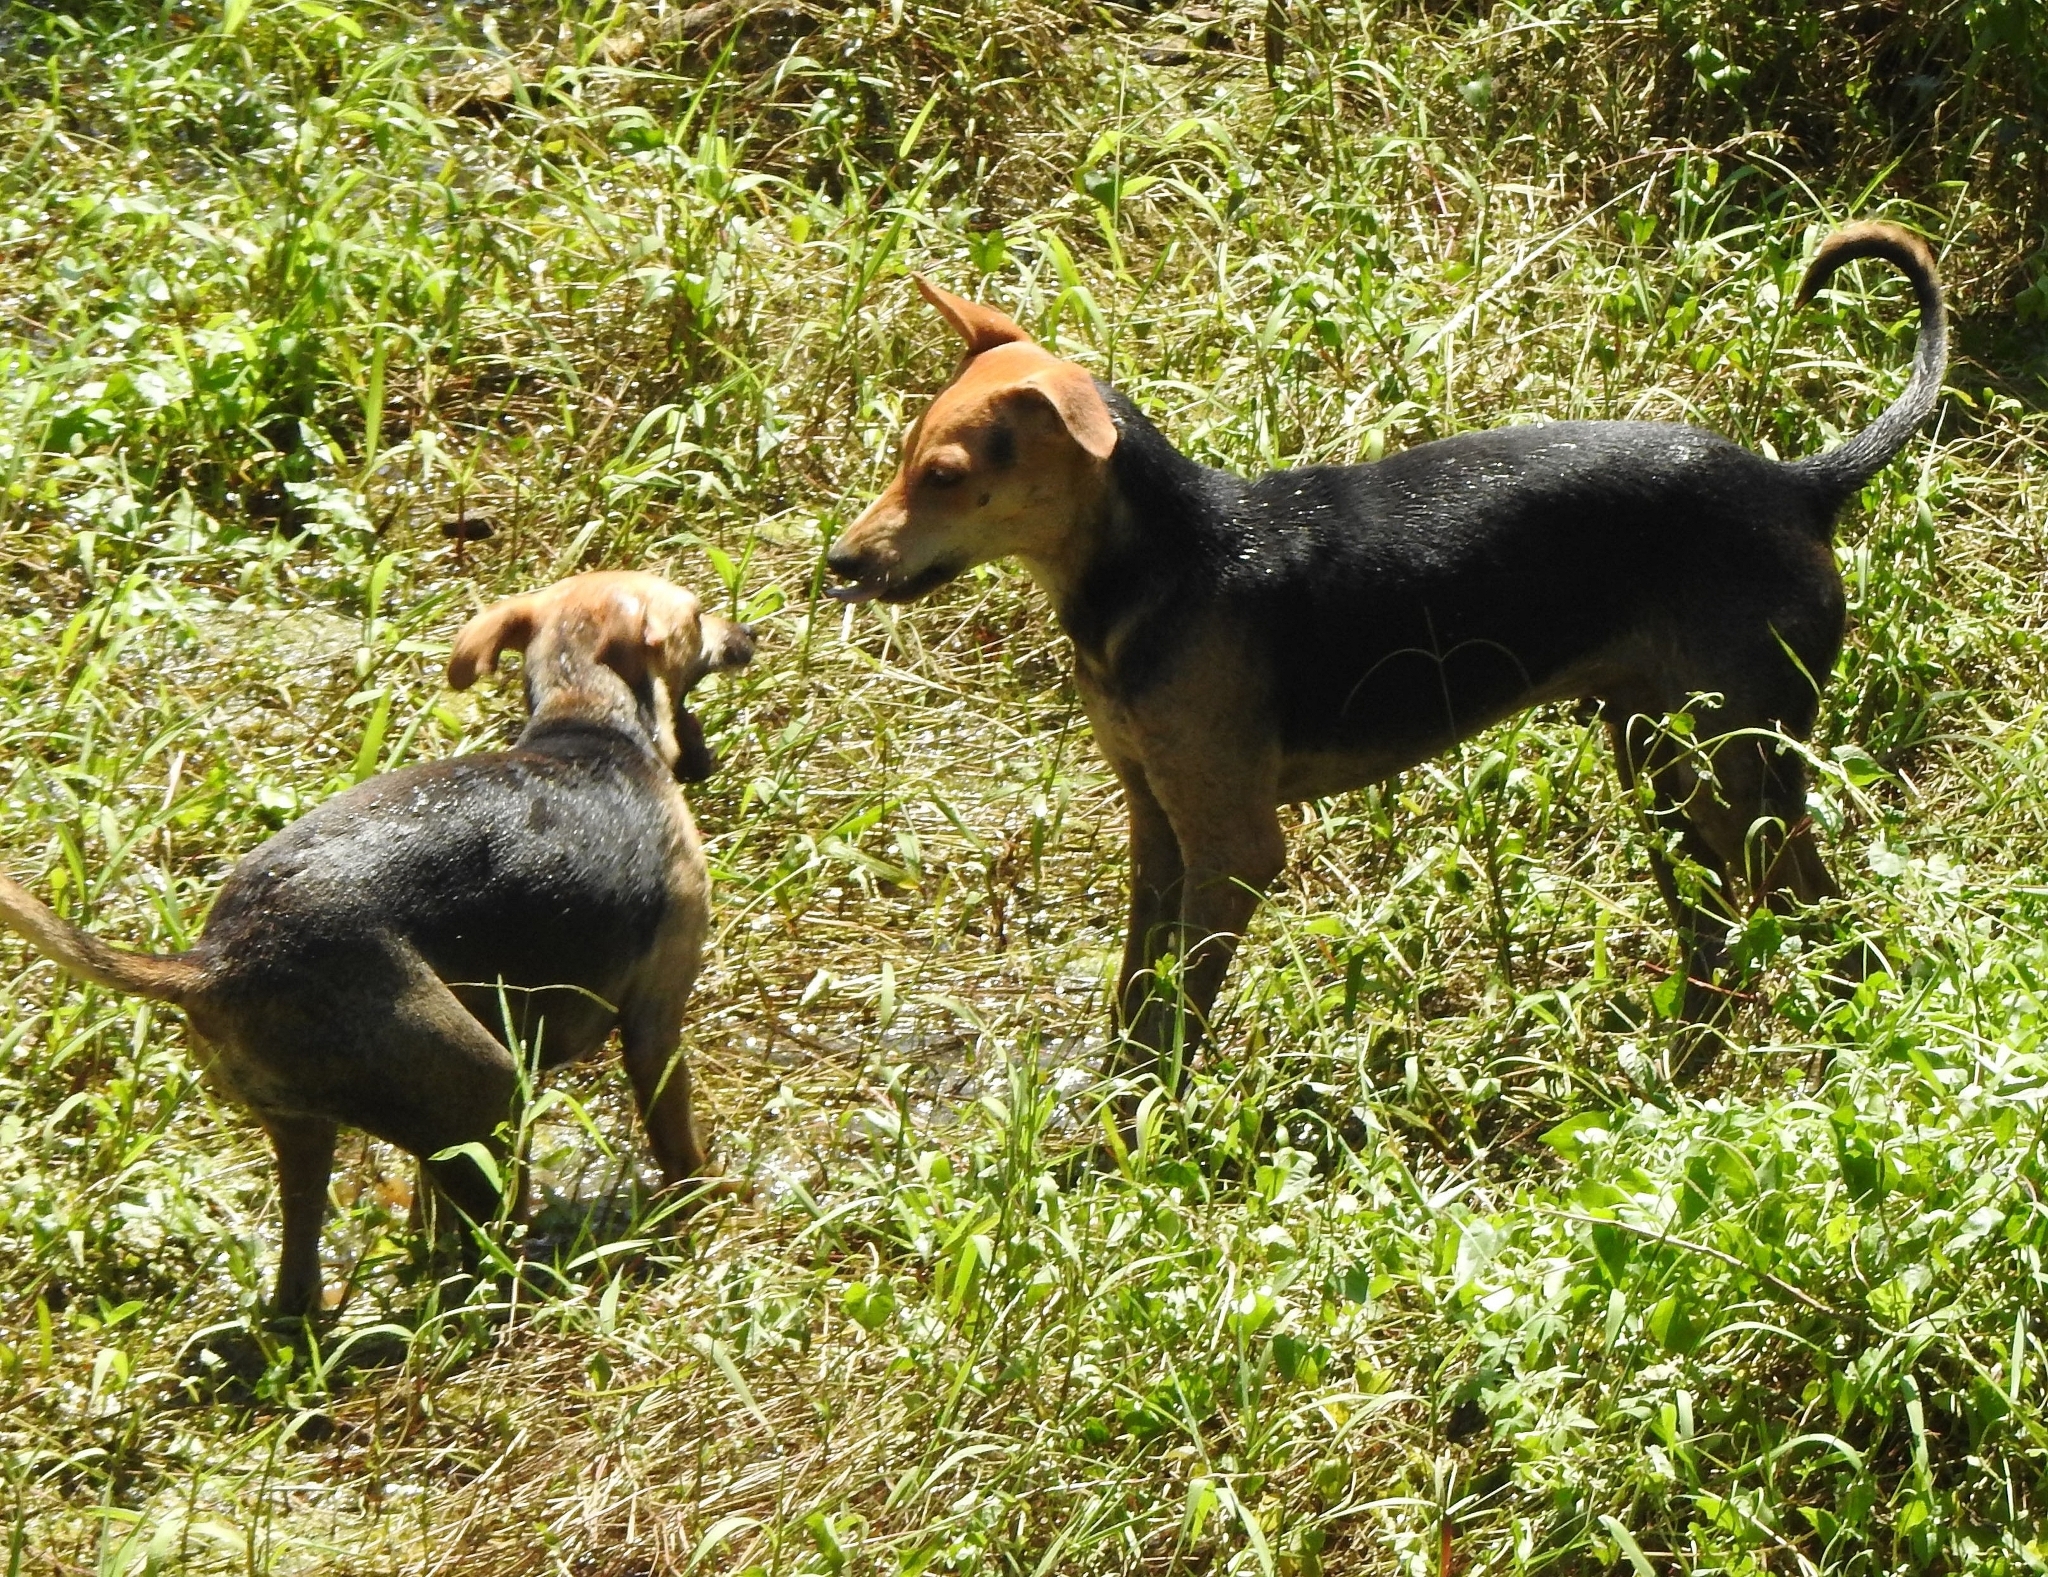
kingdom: Animalia
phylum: Chordata
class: Mammalia
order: Carnivora
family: Canidae
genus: Canis
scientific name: Canis lupus
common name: Gray wolf
